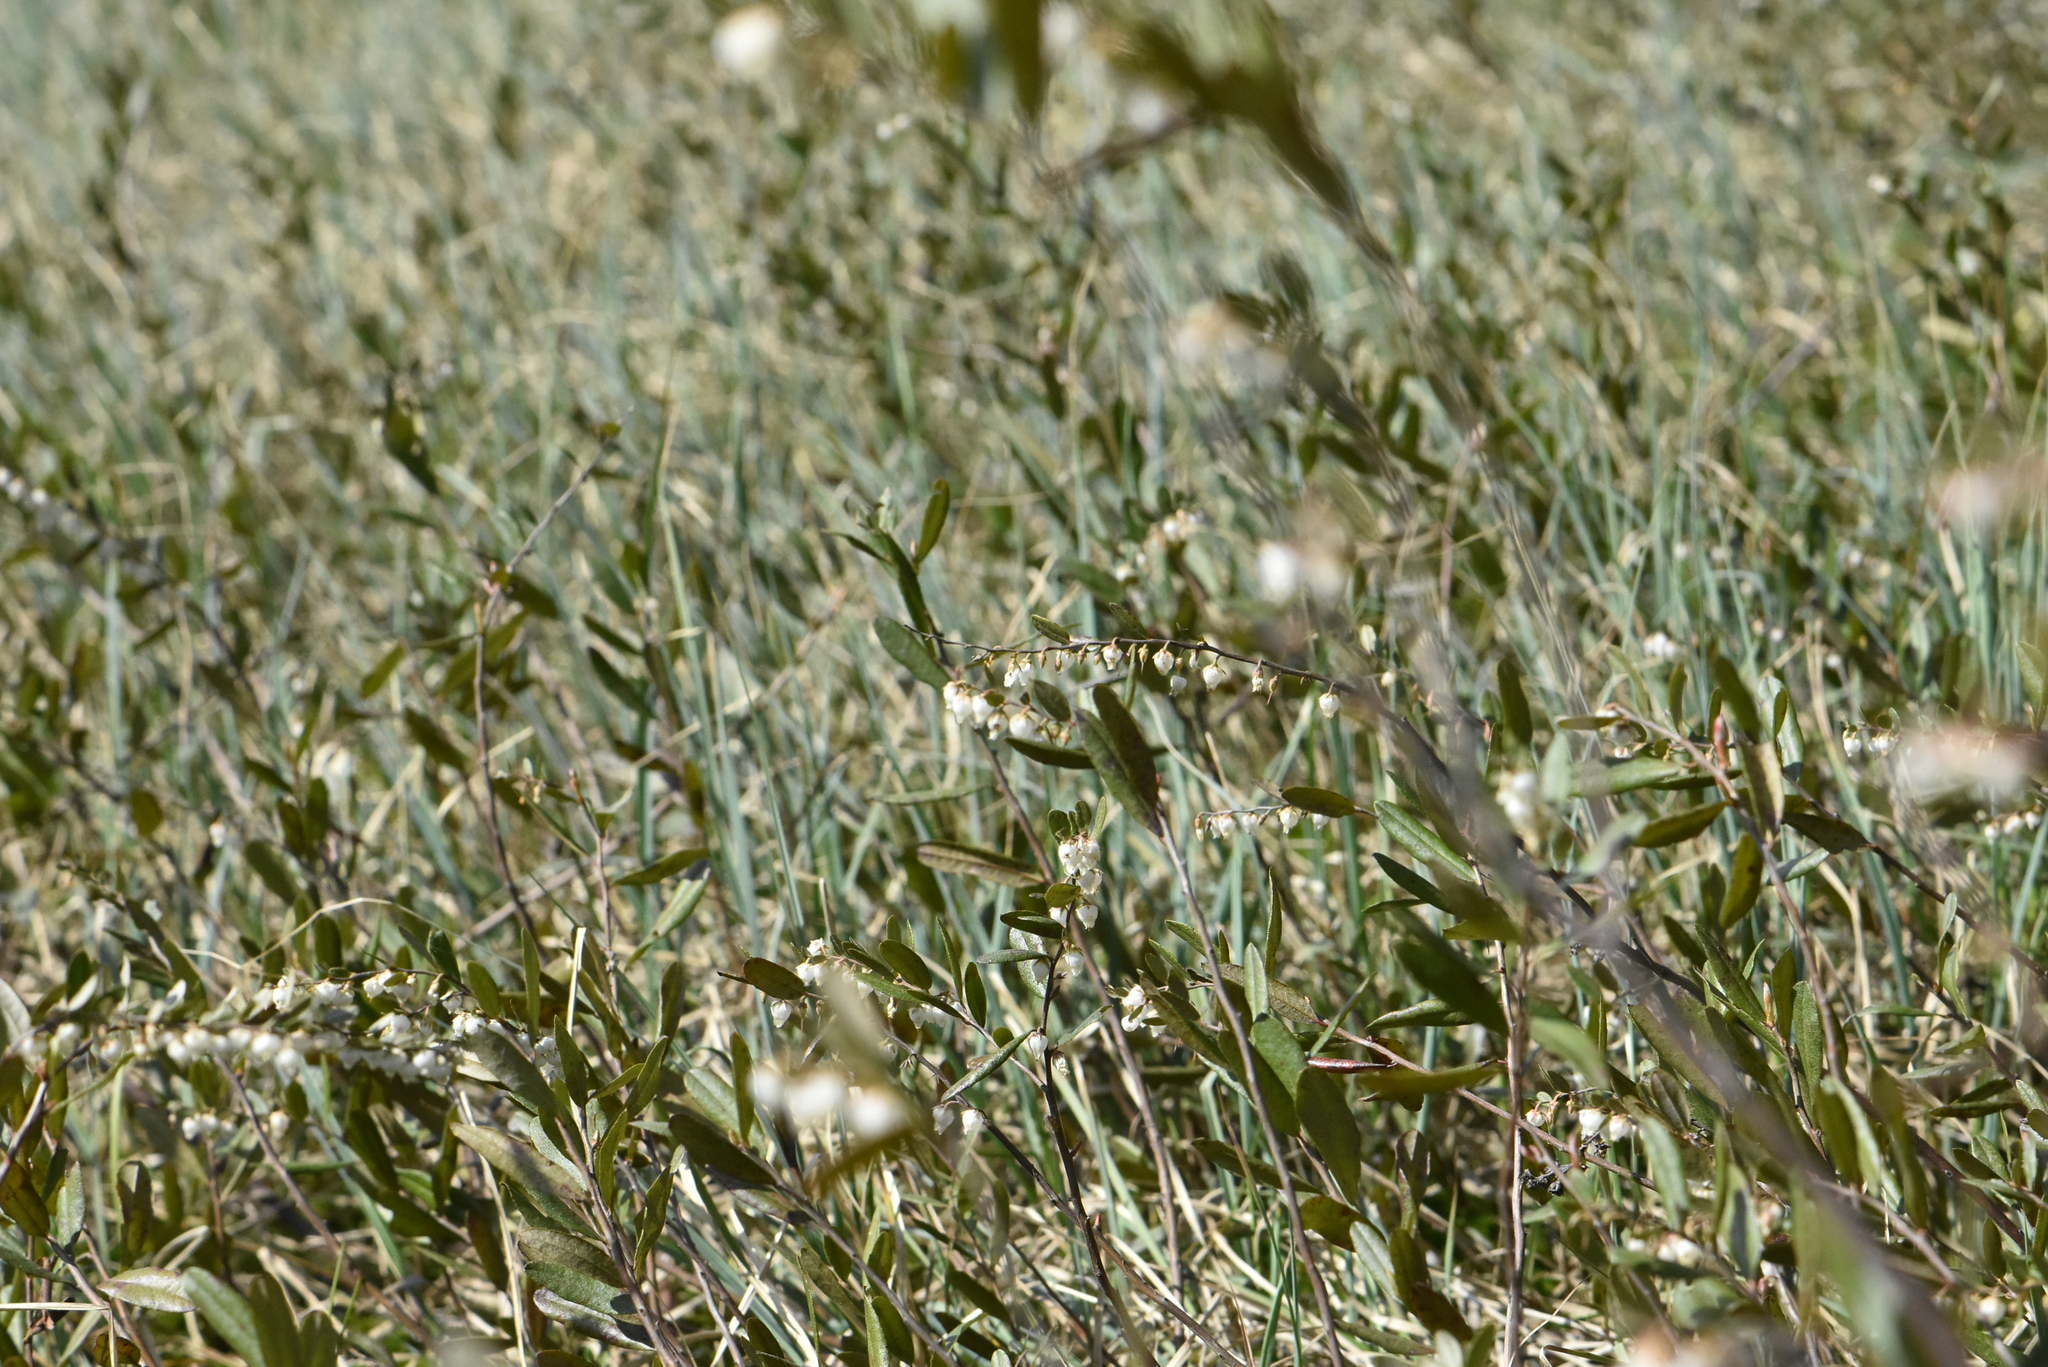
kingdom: Plantae
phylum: Tracheophyta
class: Magnoliopsida
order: Ericales
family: Ericaceae
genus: Chamaedaphne
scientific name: Chamaedaphne calyculata
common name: Leatherleaf
